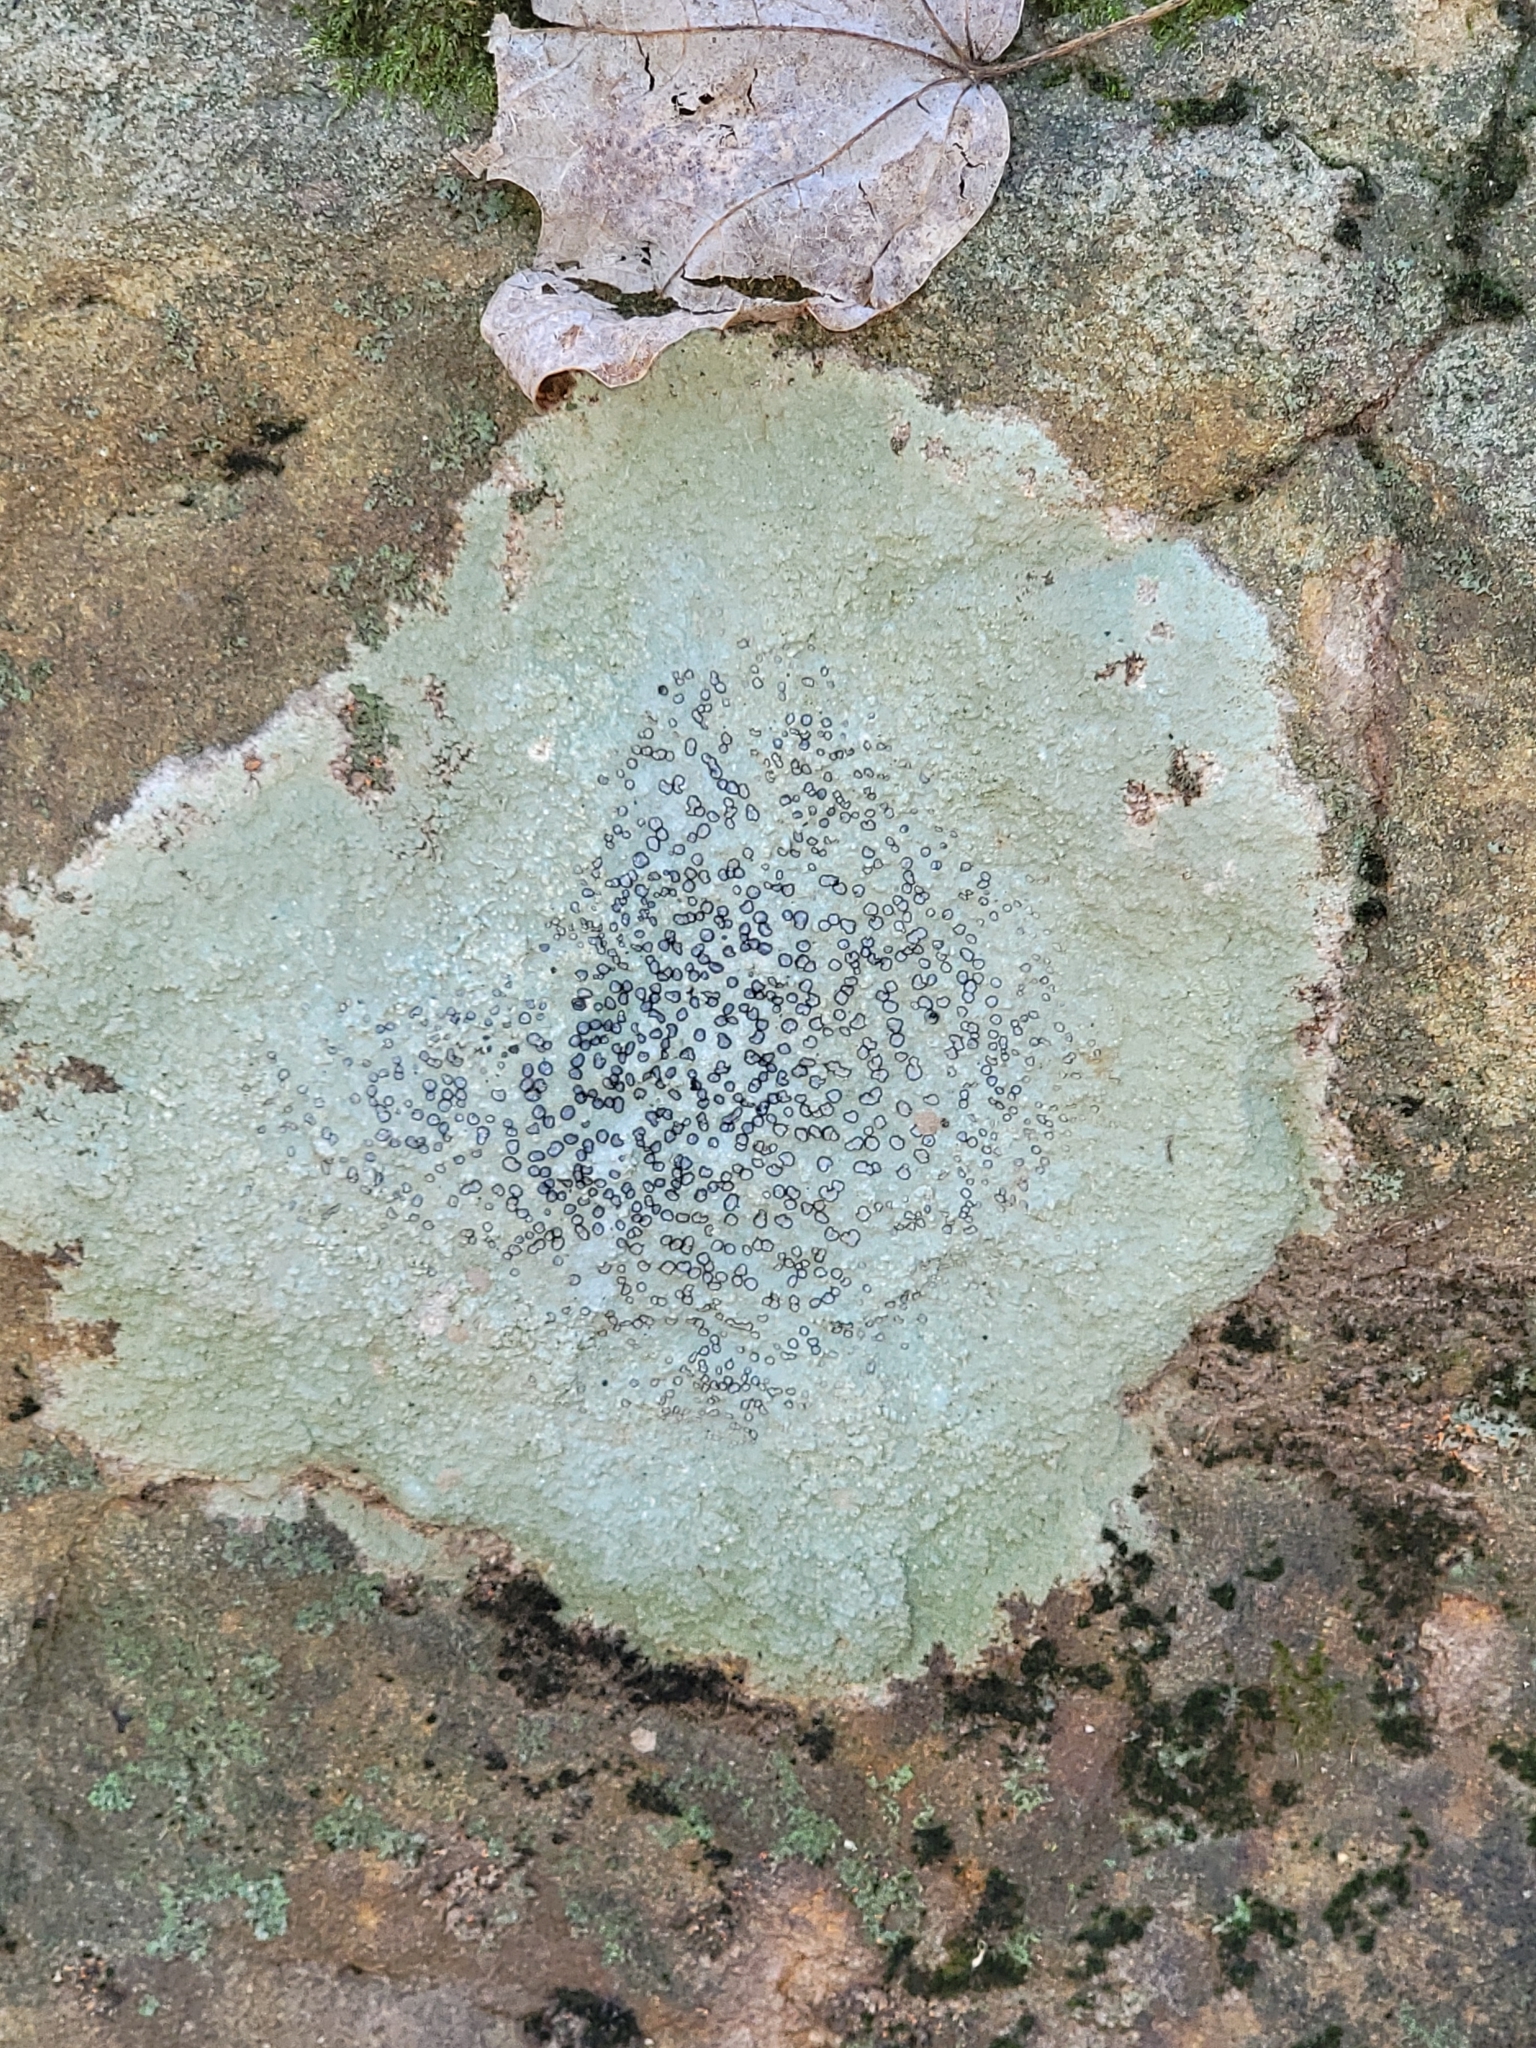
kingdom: Fungi
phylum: Ascomycota
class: Lecanoromycetes
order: Lecideales
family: Lecideaceae
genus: Porpidia
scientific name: Porpidia albocaerulescens
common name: Smokey-eyed boulder lichen
